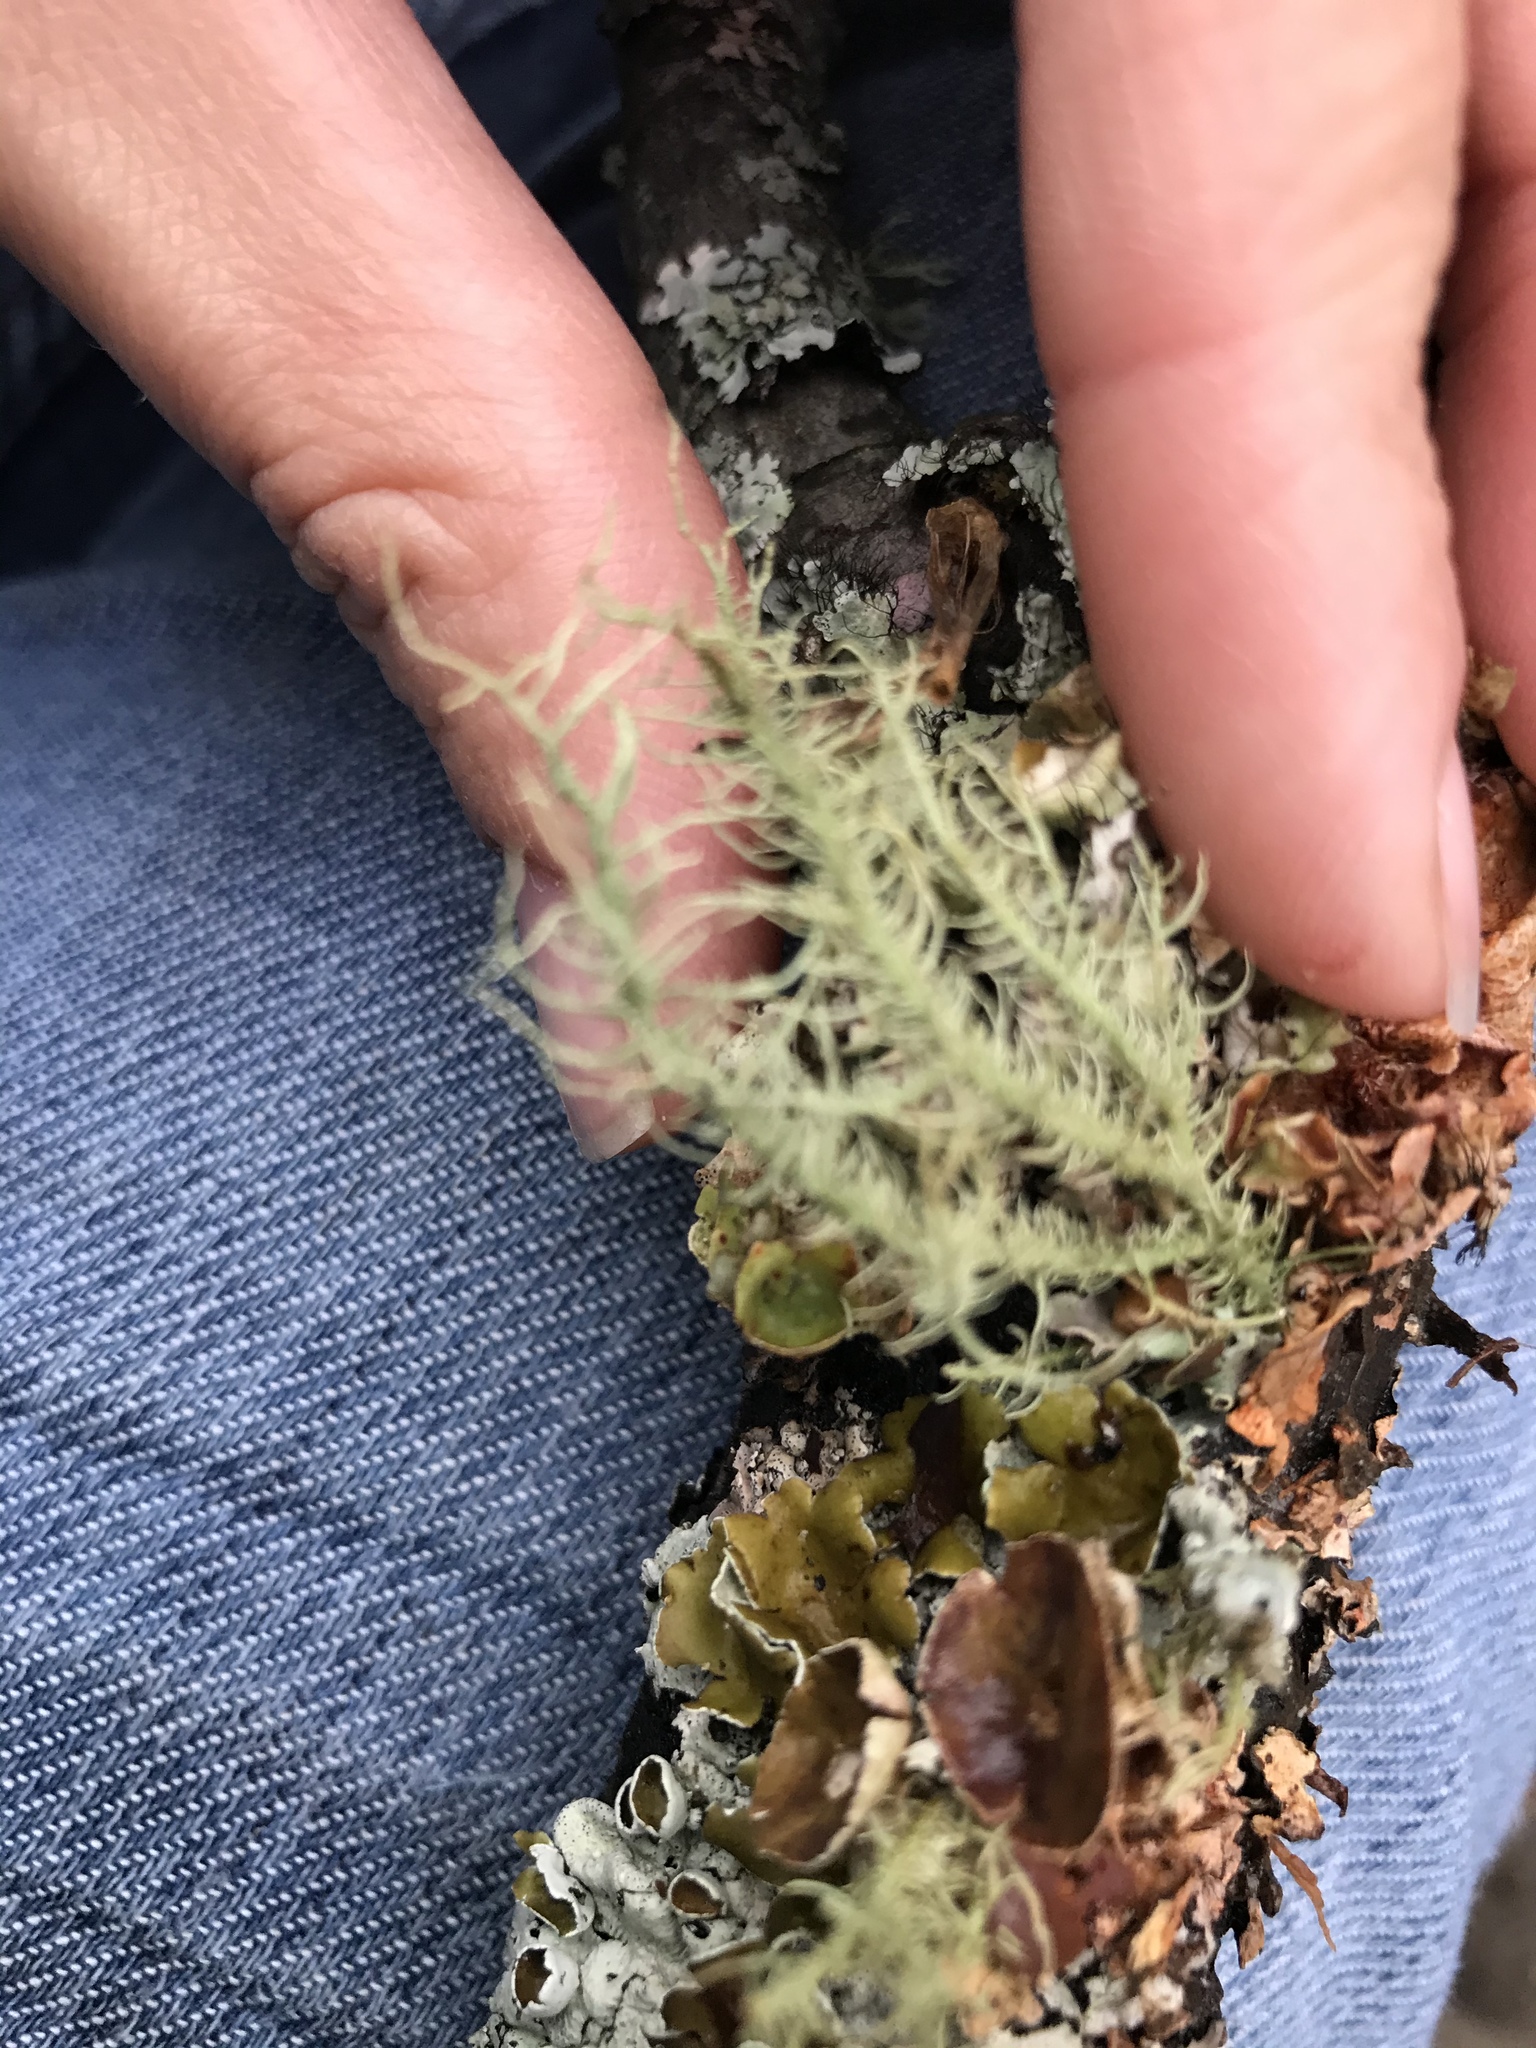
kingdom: Fungi
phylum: Ascomycota
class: Lecanoromycetes
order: Lecanorales
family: Parmeliaceae
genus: Usnea
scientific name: Usnea hirta
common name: Bristly beard lichen
